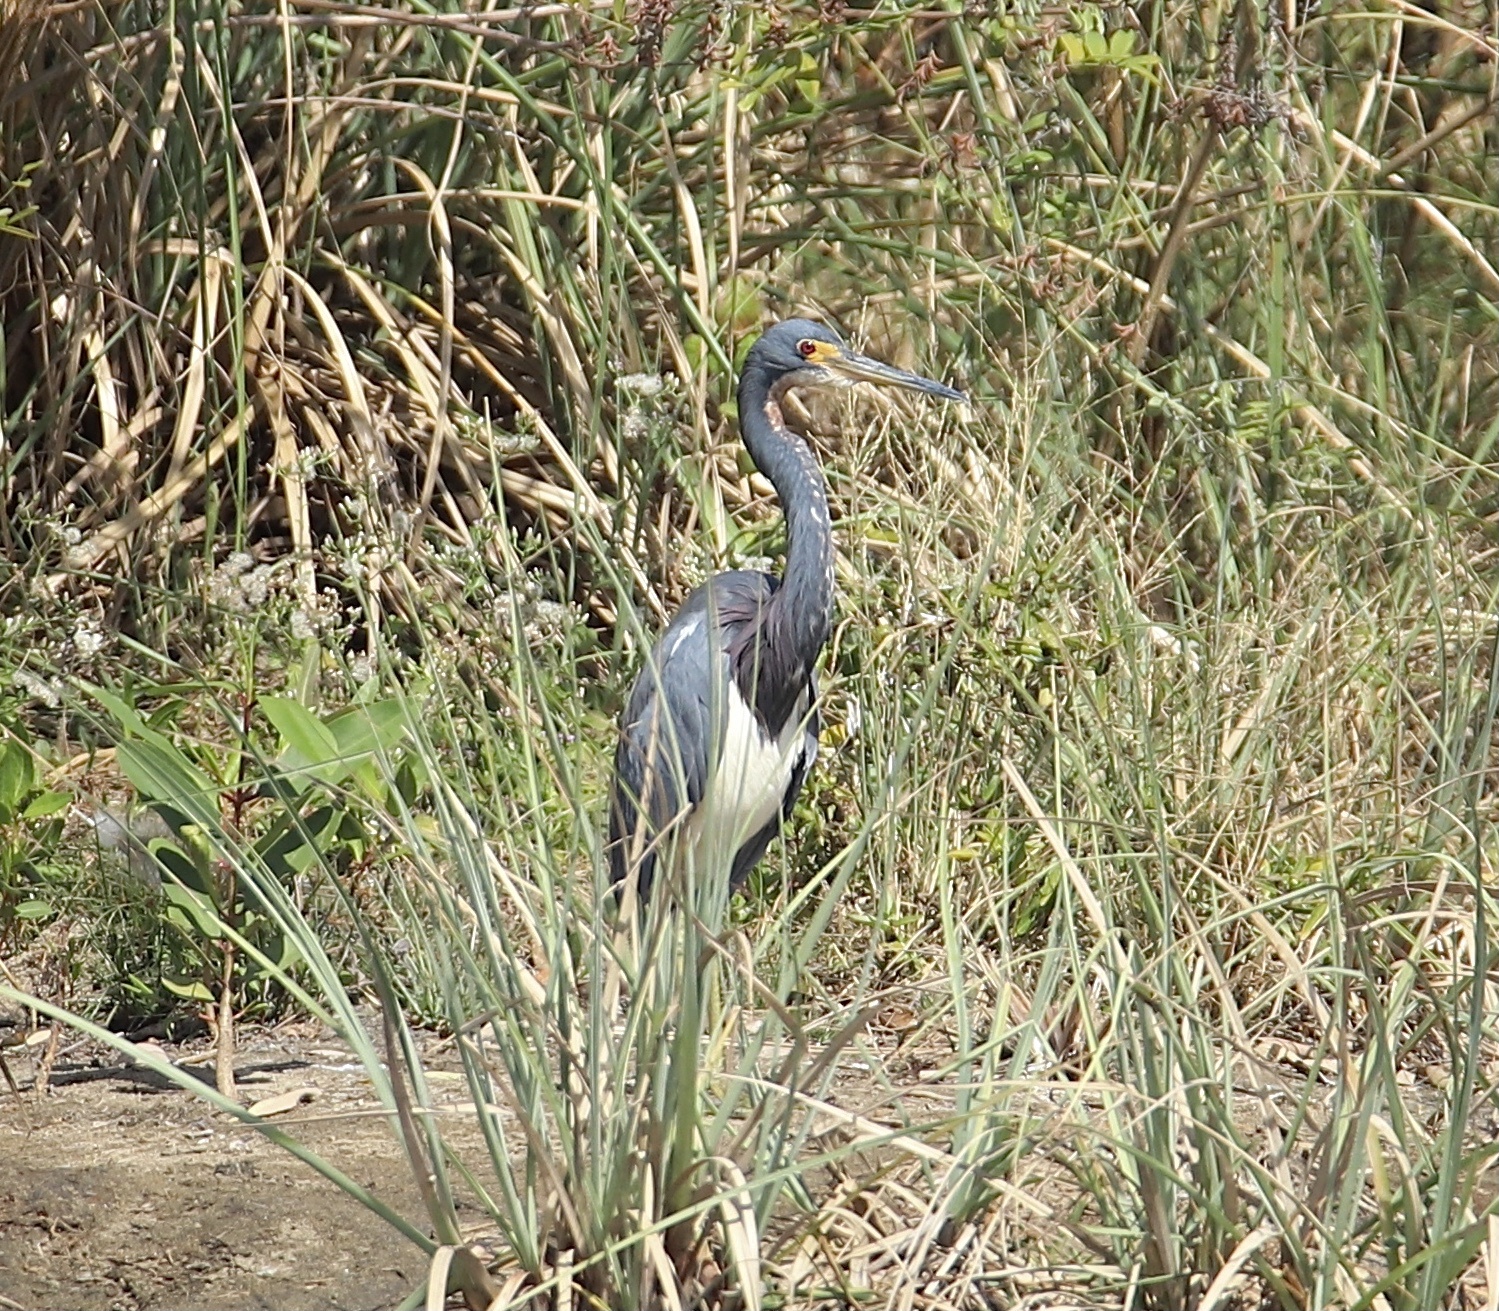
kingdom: Animalia
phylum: Chordata
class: Aves
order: Pelecaniformes
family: Ardeidae
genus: Egretta
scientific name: Egretta tricolor
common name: Tricolored heron
